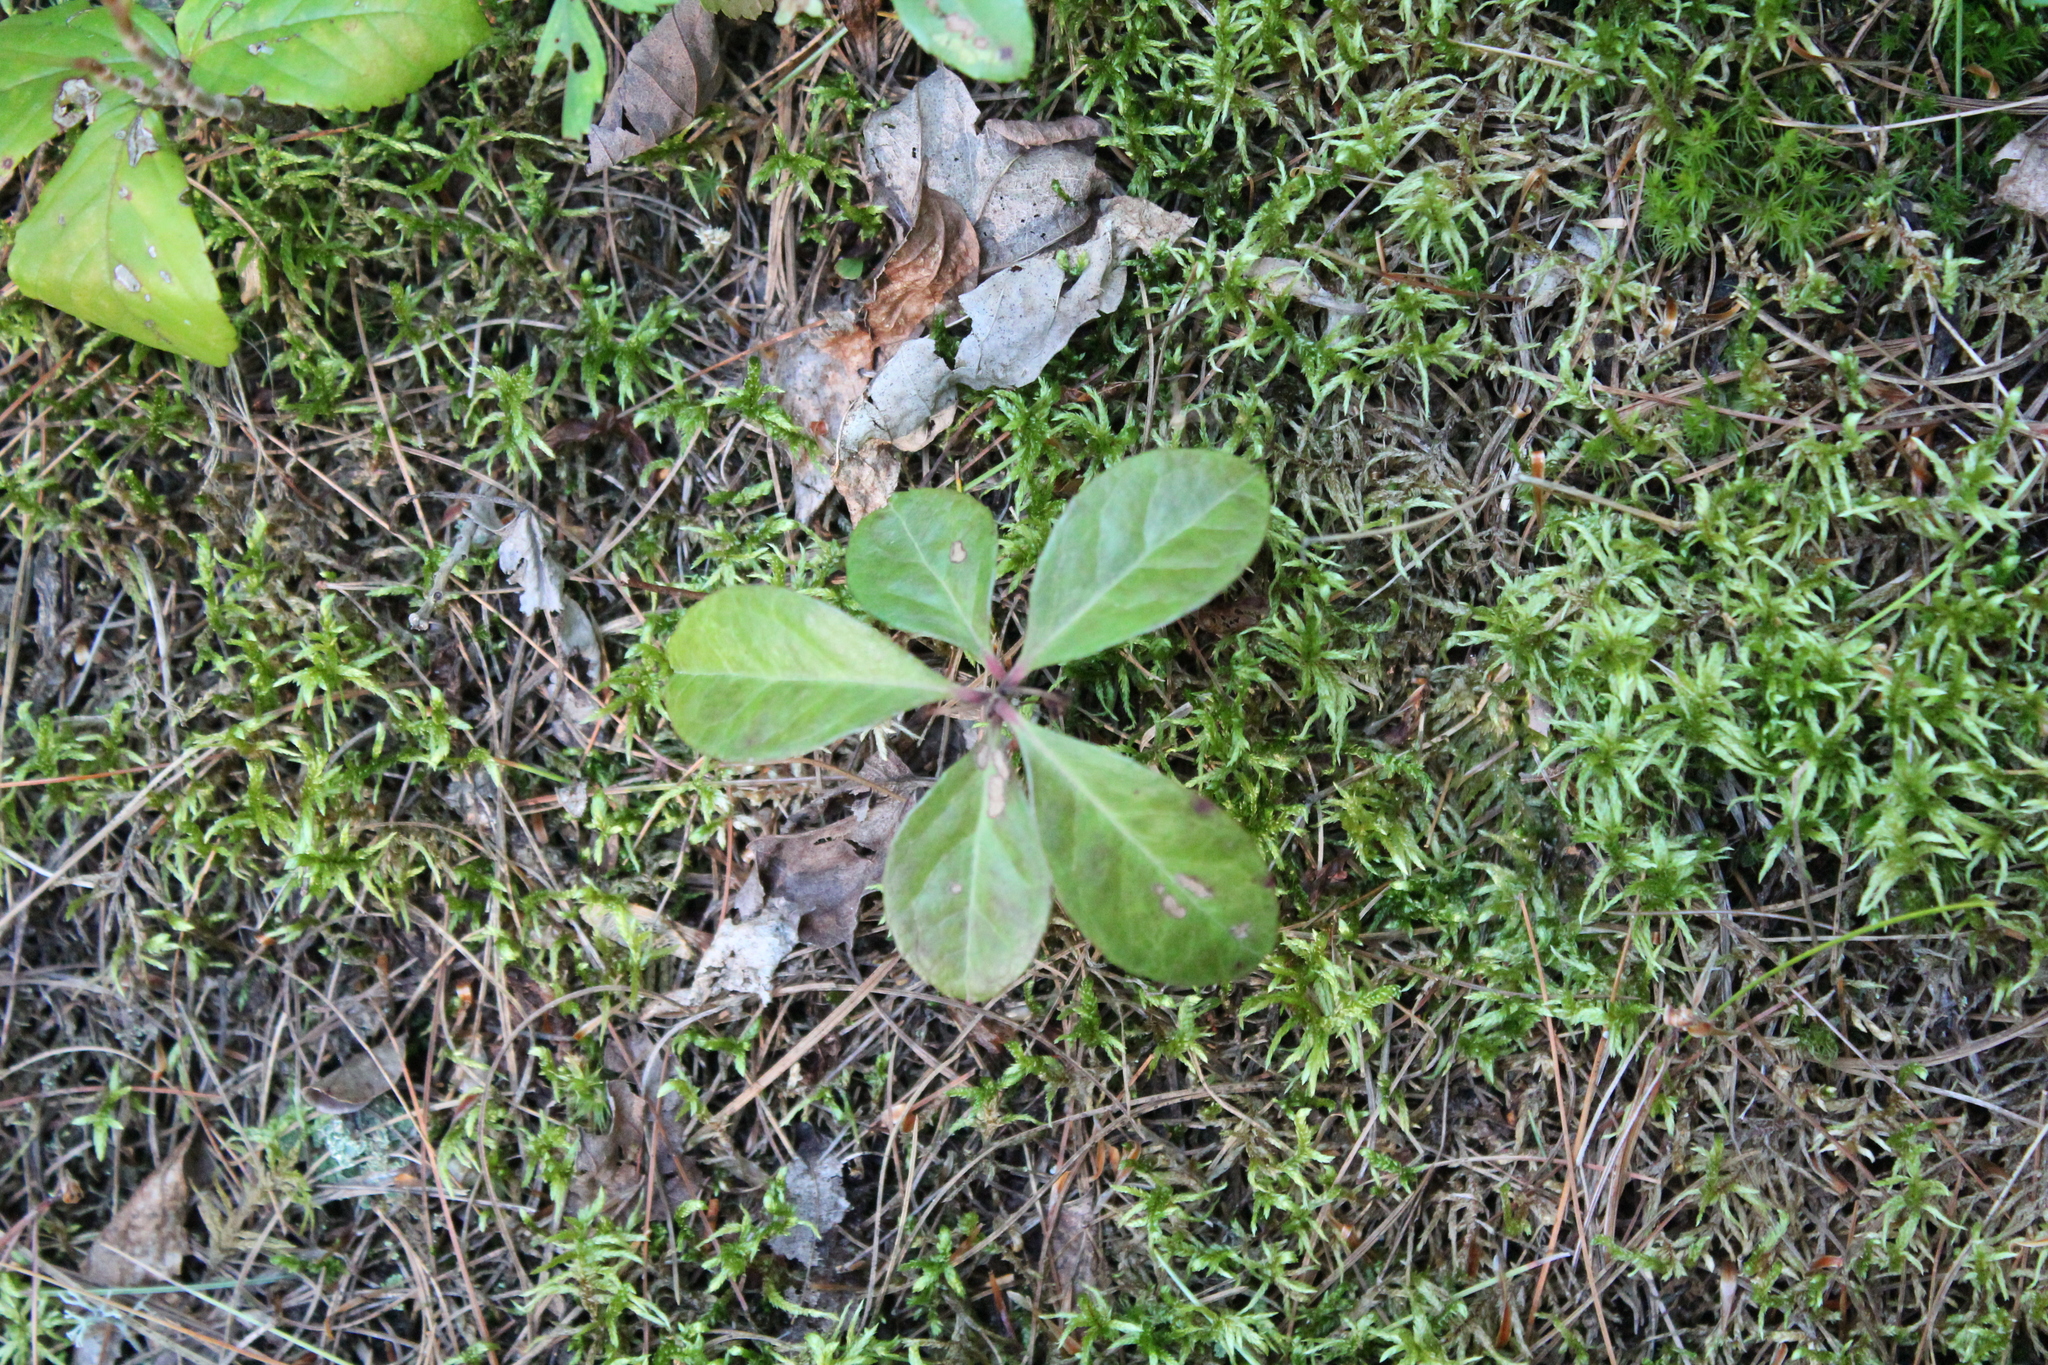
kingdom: Plantae
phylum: Tracheophyta
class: Magnoliopsida
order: Ericales
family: Ericaceae
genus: Gaultheria
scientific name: Gaultheria procumbens
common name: Checkerberry
